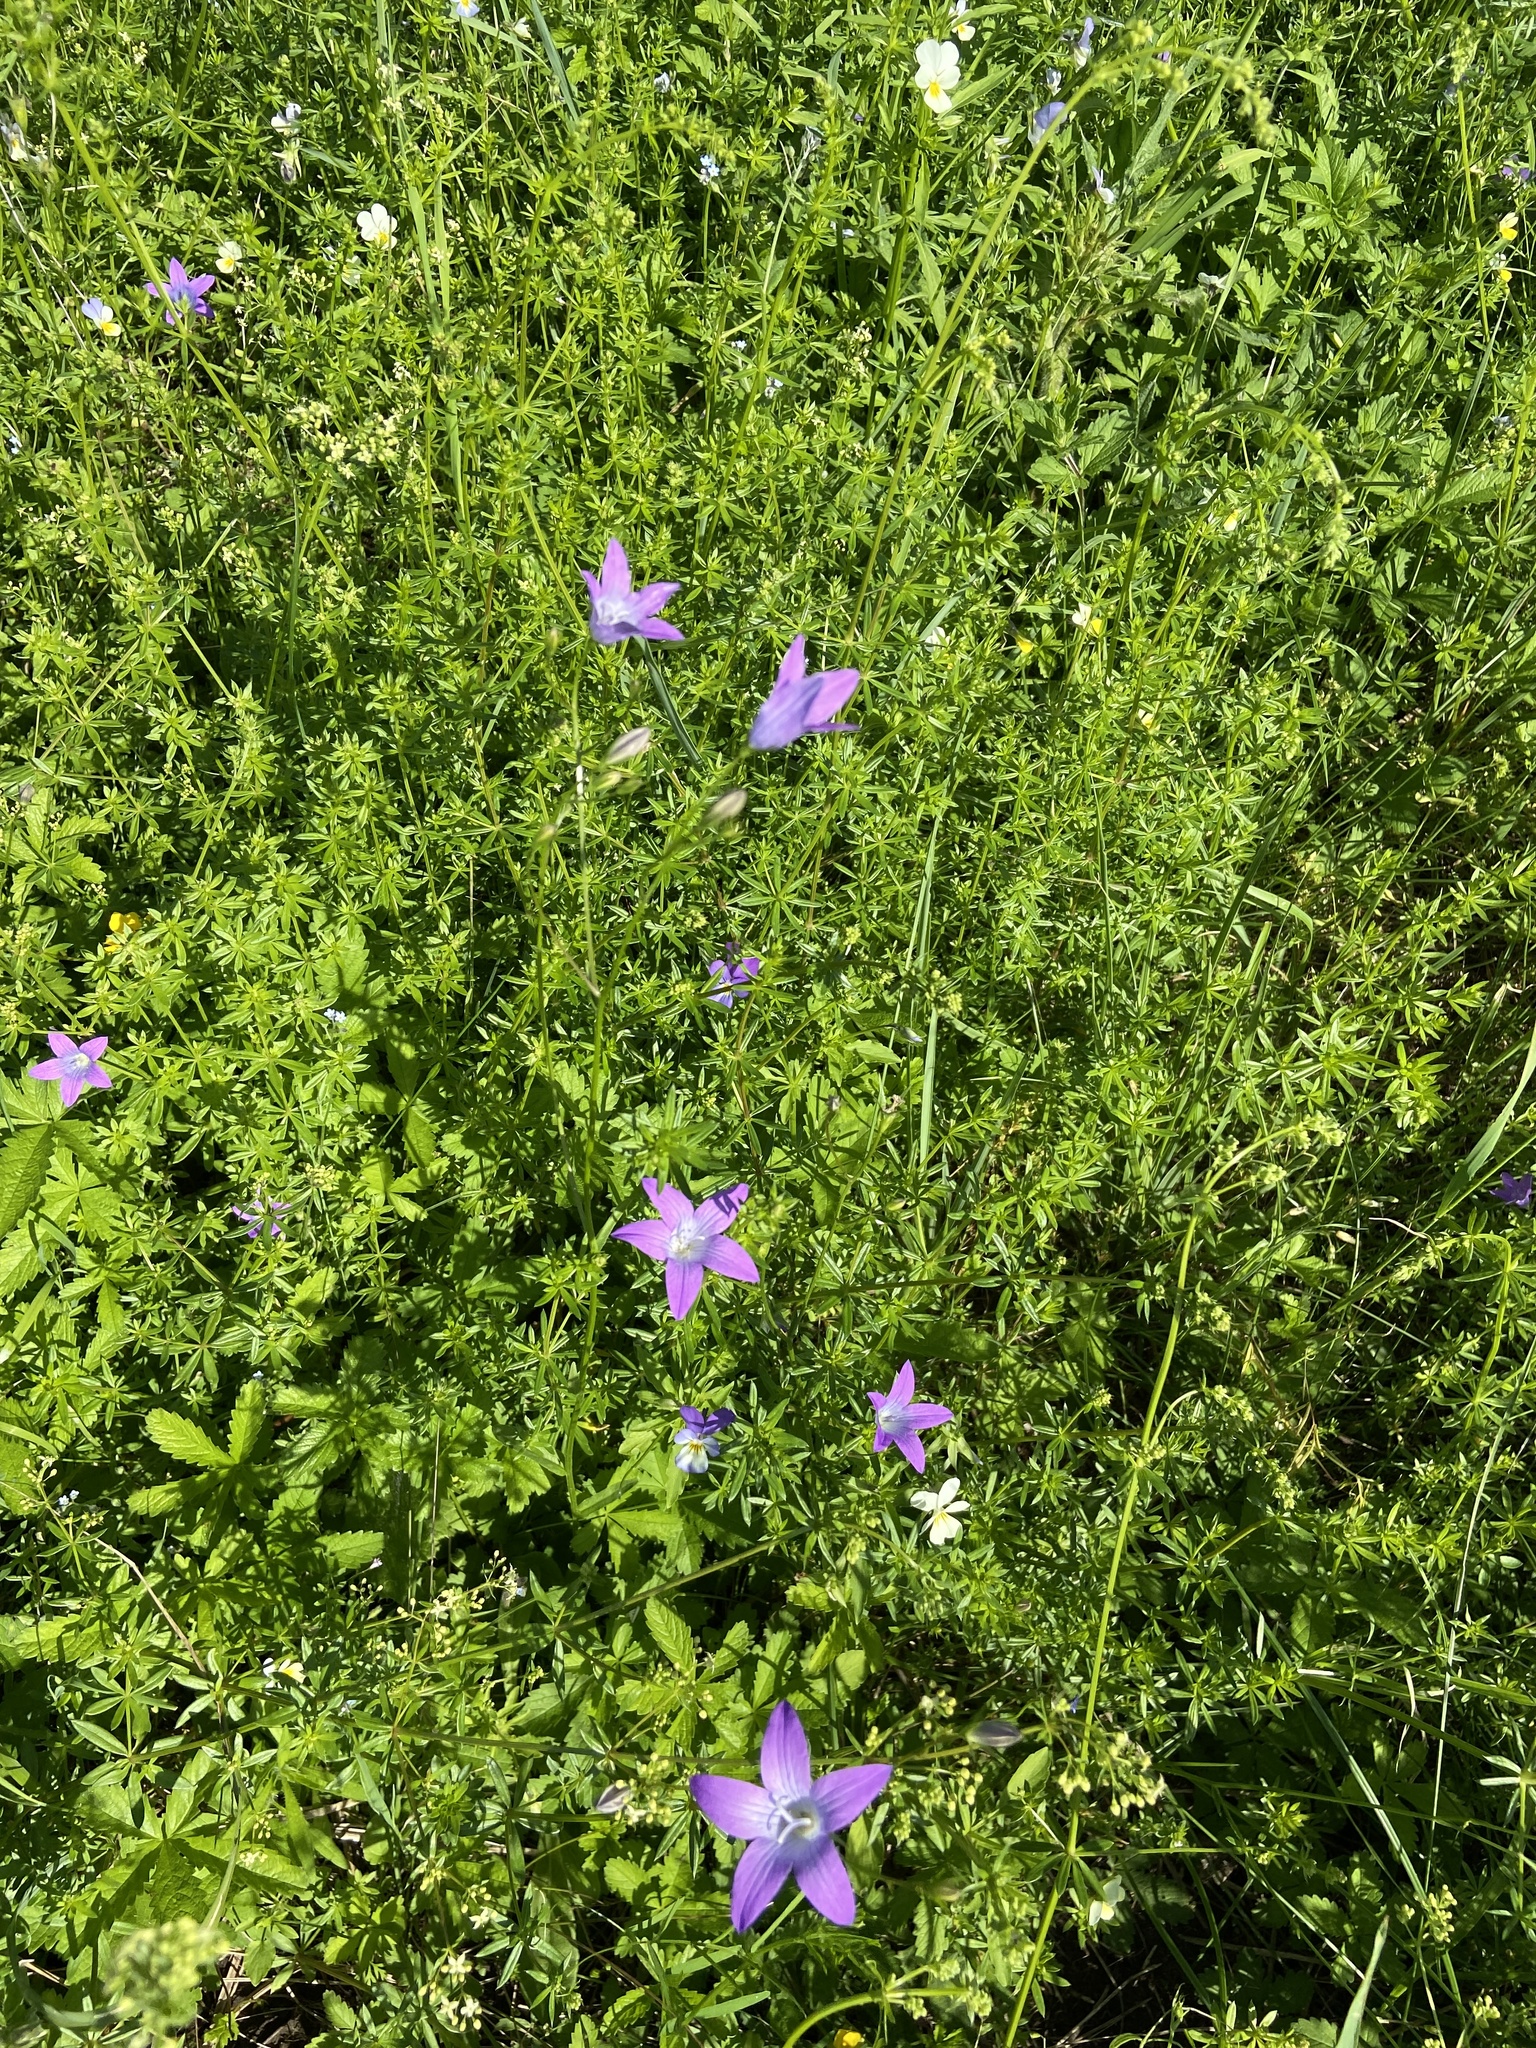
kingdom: Plantae
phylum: Tracheophyta
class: Magnoliopsida
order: Asterales
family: Campanulaceae
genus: Campanula
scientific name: Campanula patula
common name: Spreading bellflower
